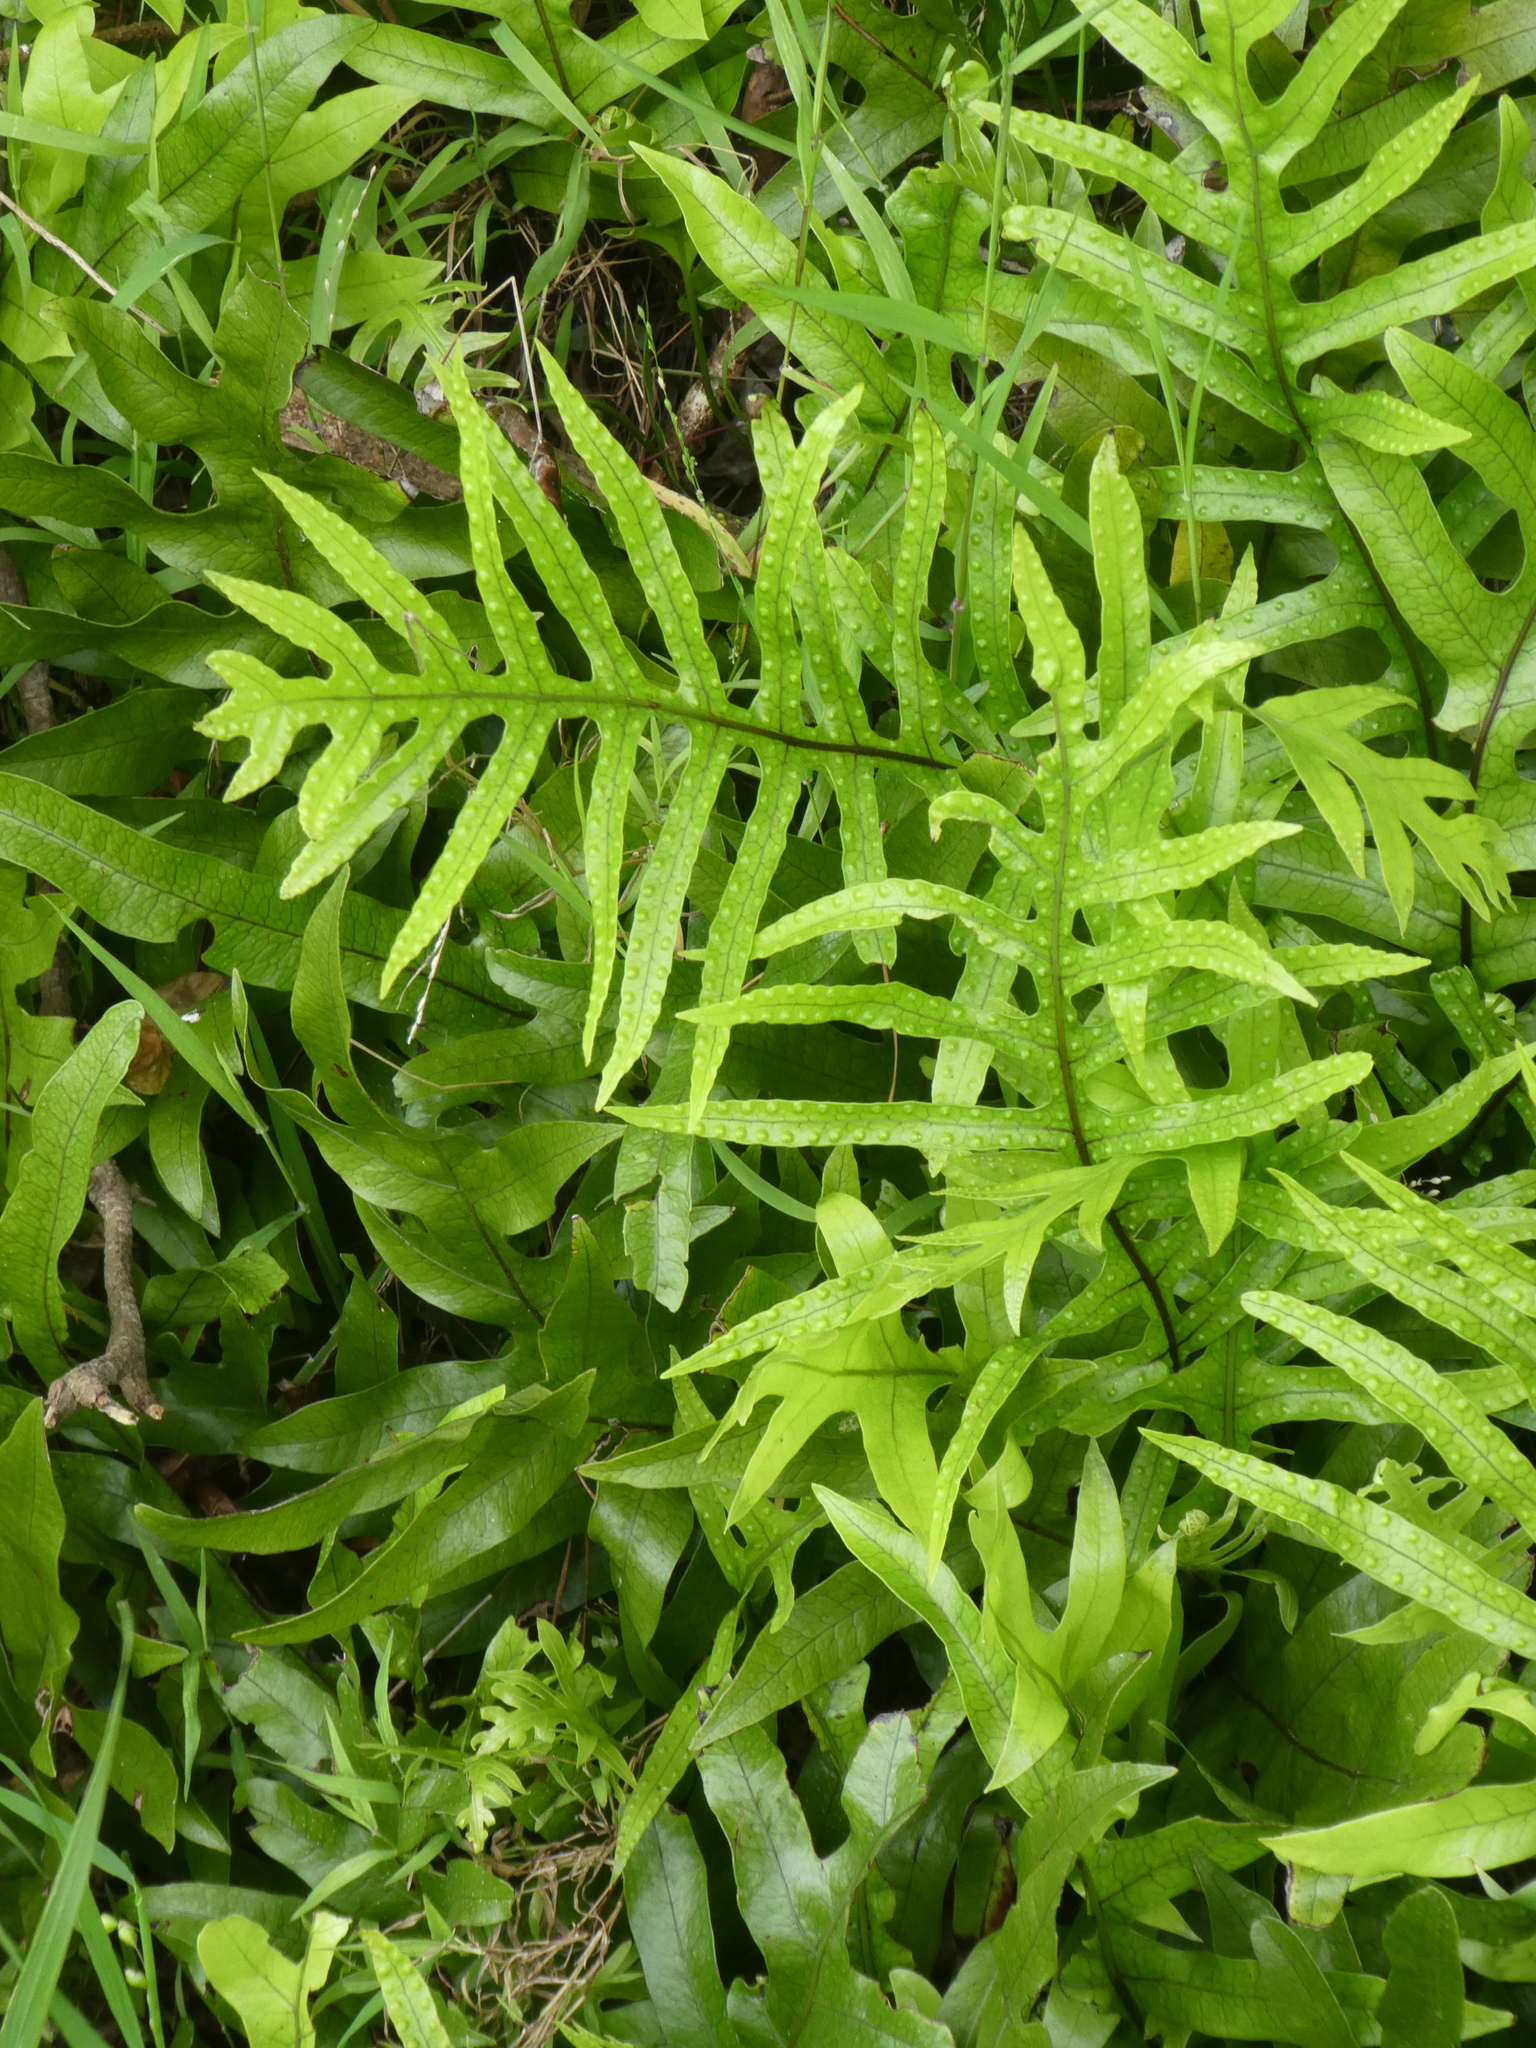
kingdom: Plantae
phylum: Tracheophyta
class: Polypodiopsida
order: Polypodiales
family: Polypodiaceae
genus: Lecanopteris
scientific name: Lecanopteris pustulata
